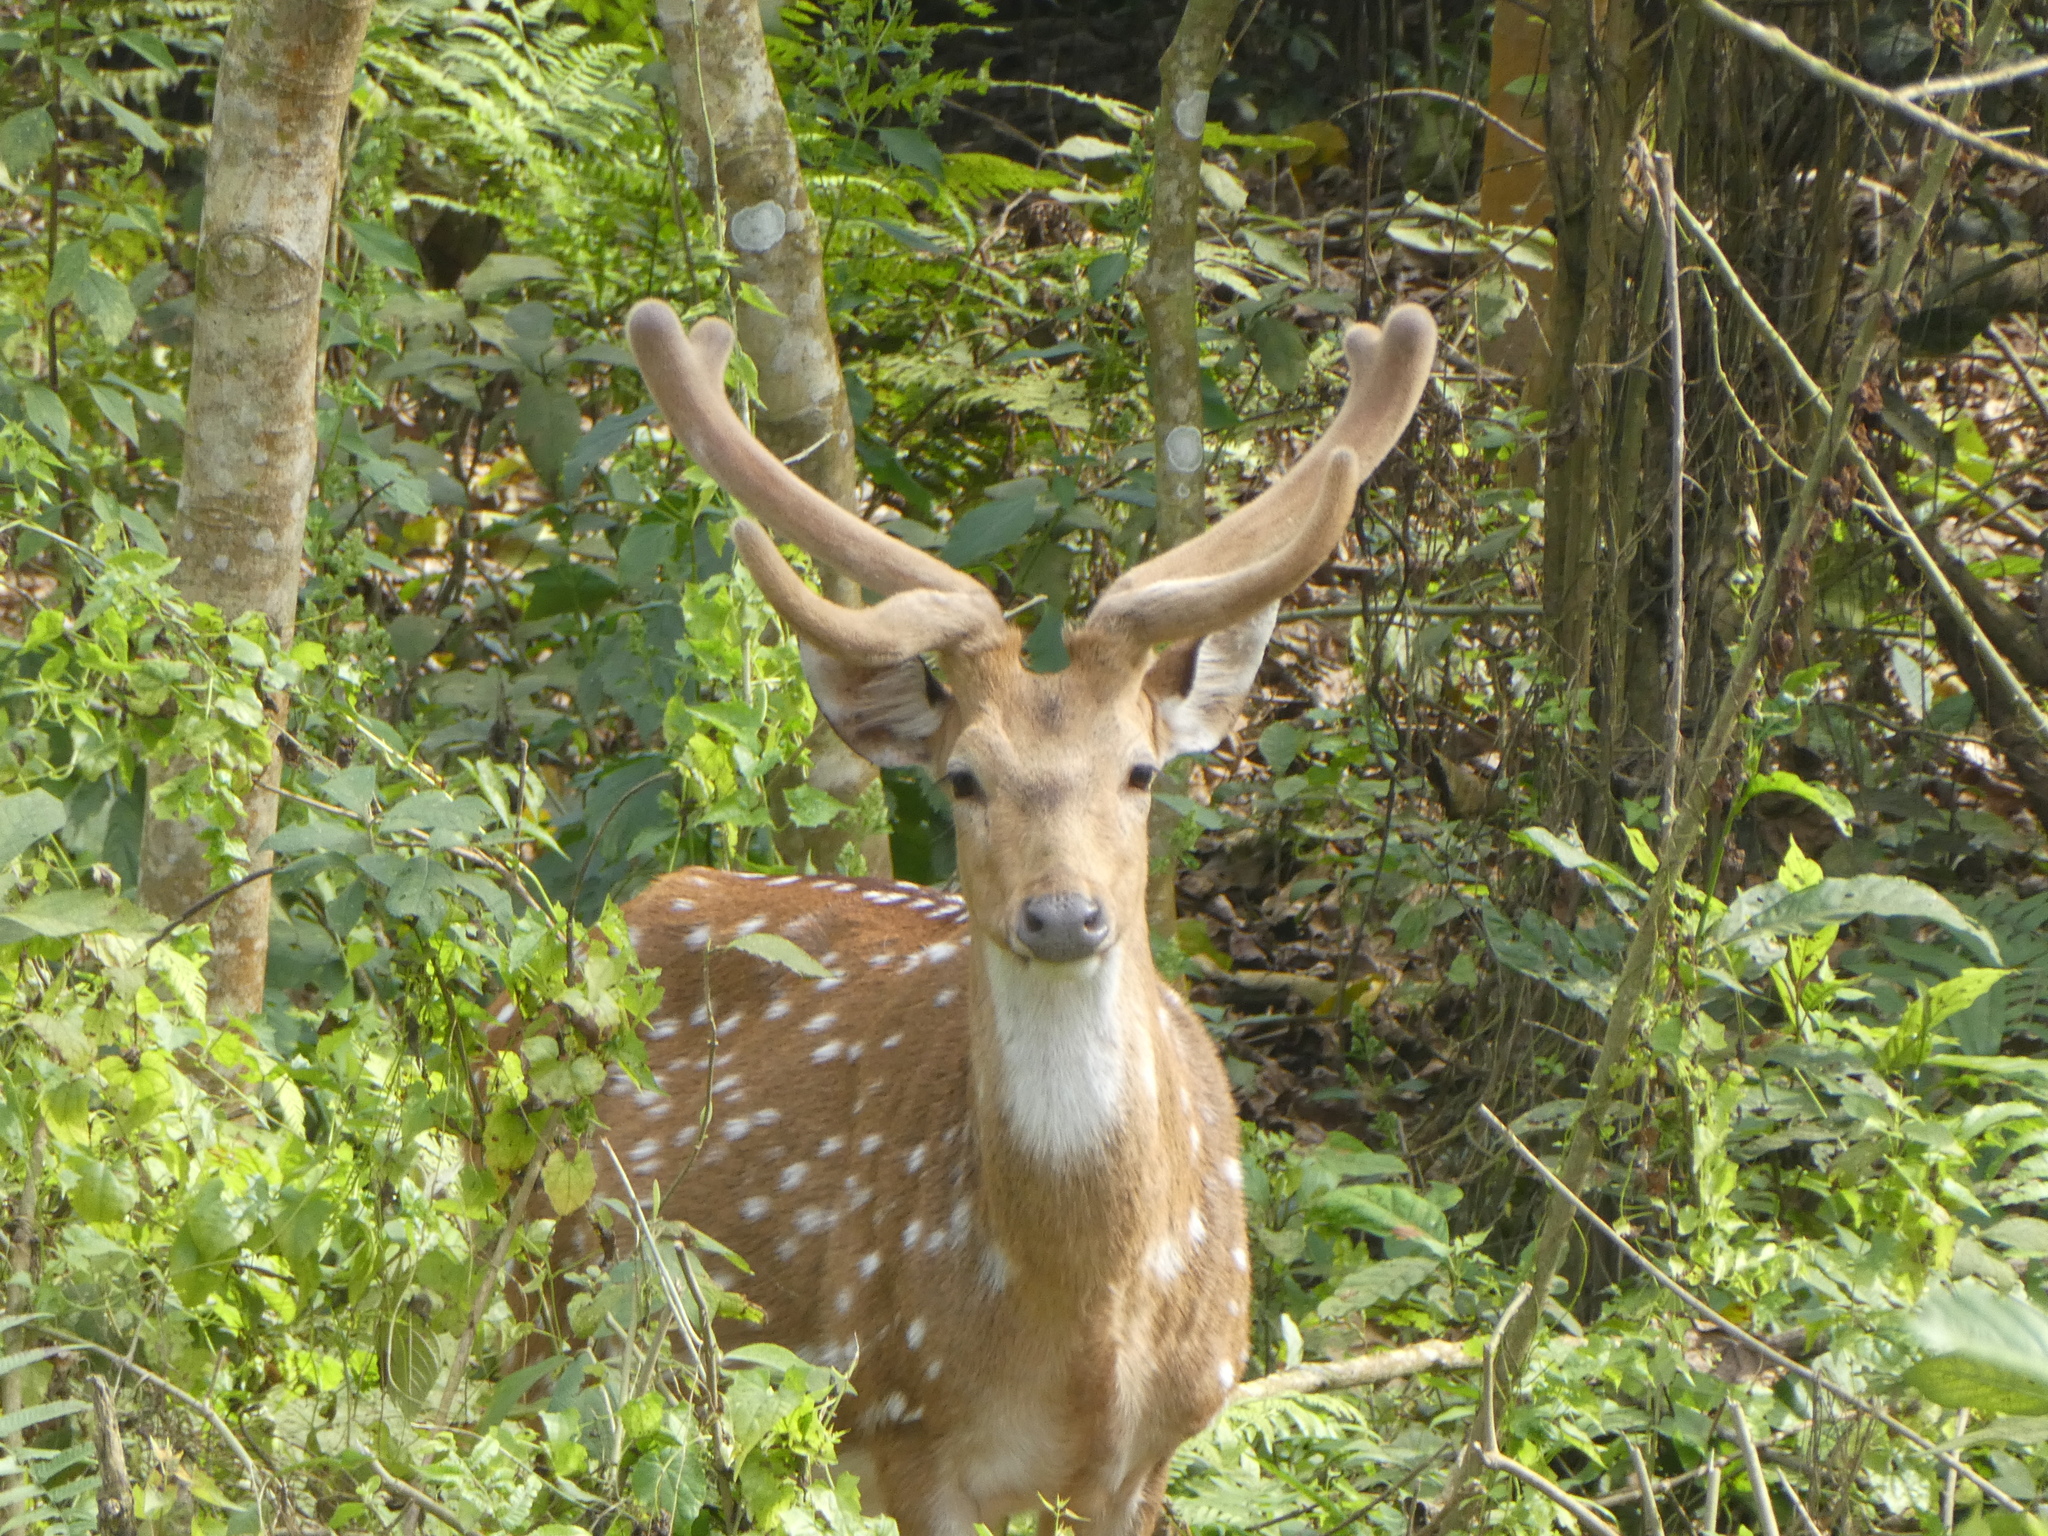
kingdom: Animalia
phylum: Chordata
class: Mammalia
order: Artiodactyla
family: Cervidae
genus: Axis
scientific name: Axis axis
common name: Chital
